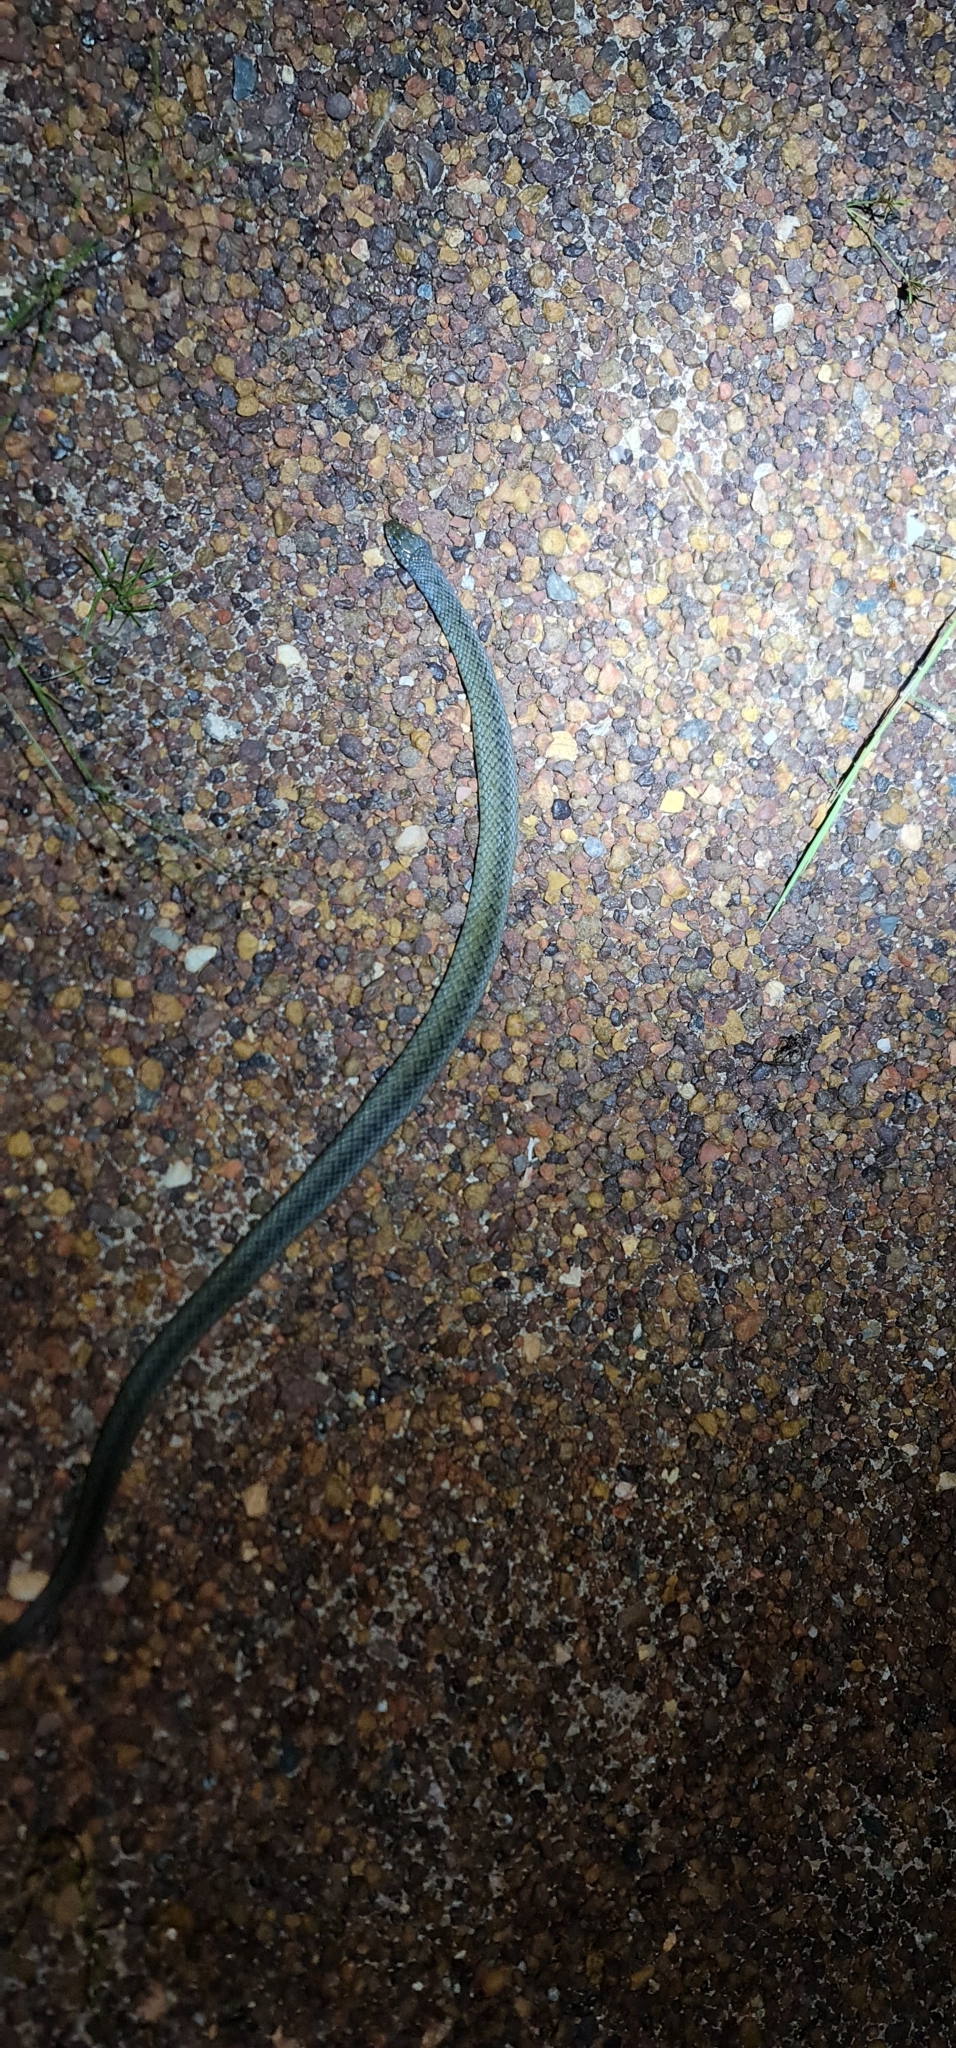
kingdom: Animalia
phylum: Chordata
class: Squamata
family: Colubridae
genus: Tropidonophis
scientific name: Tropidonophis mairii
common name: Common keelback
